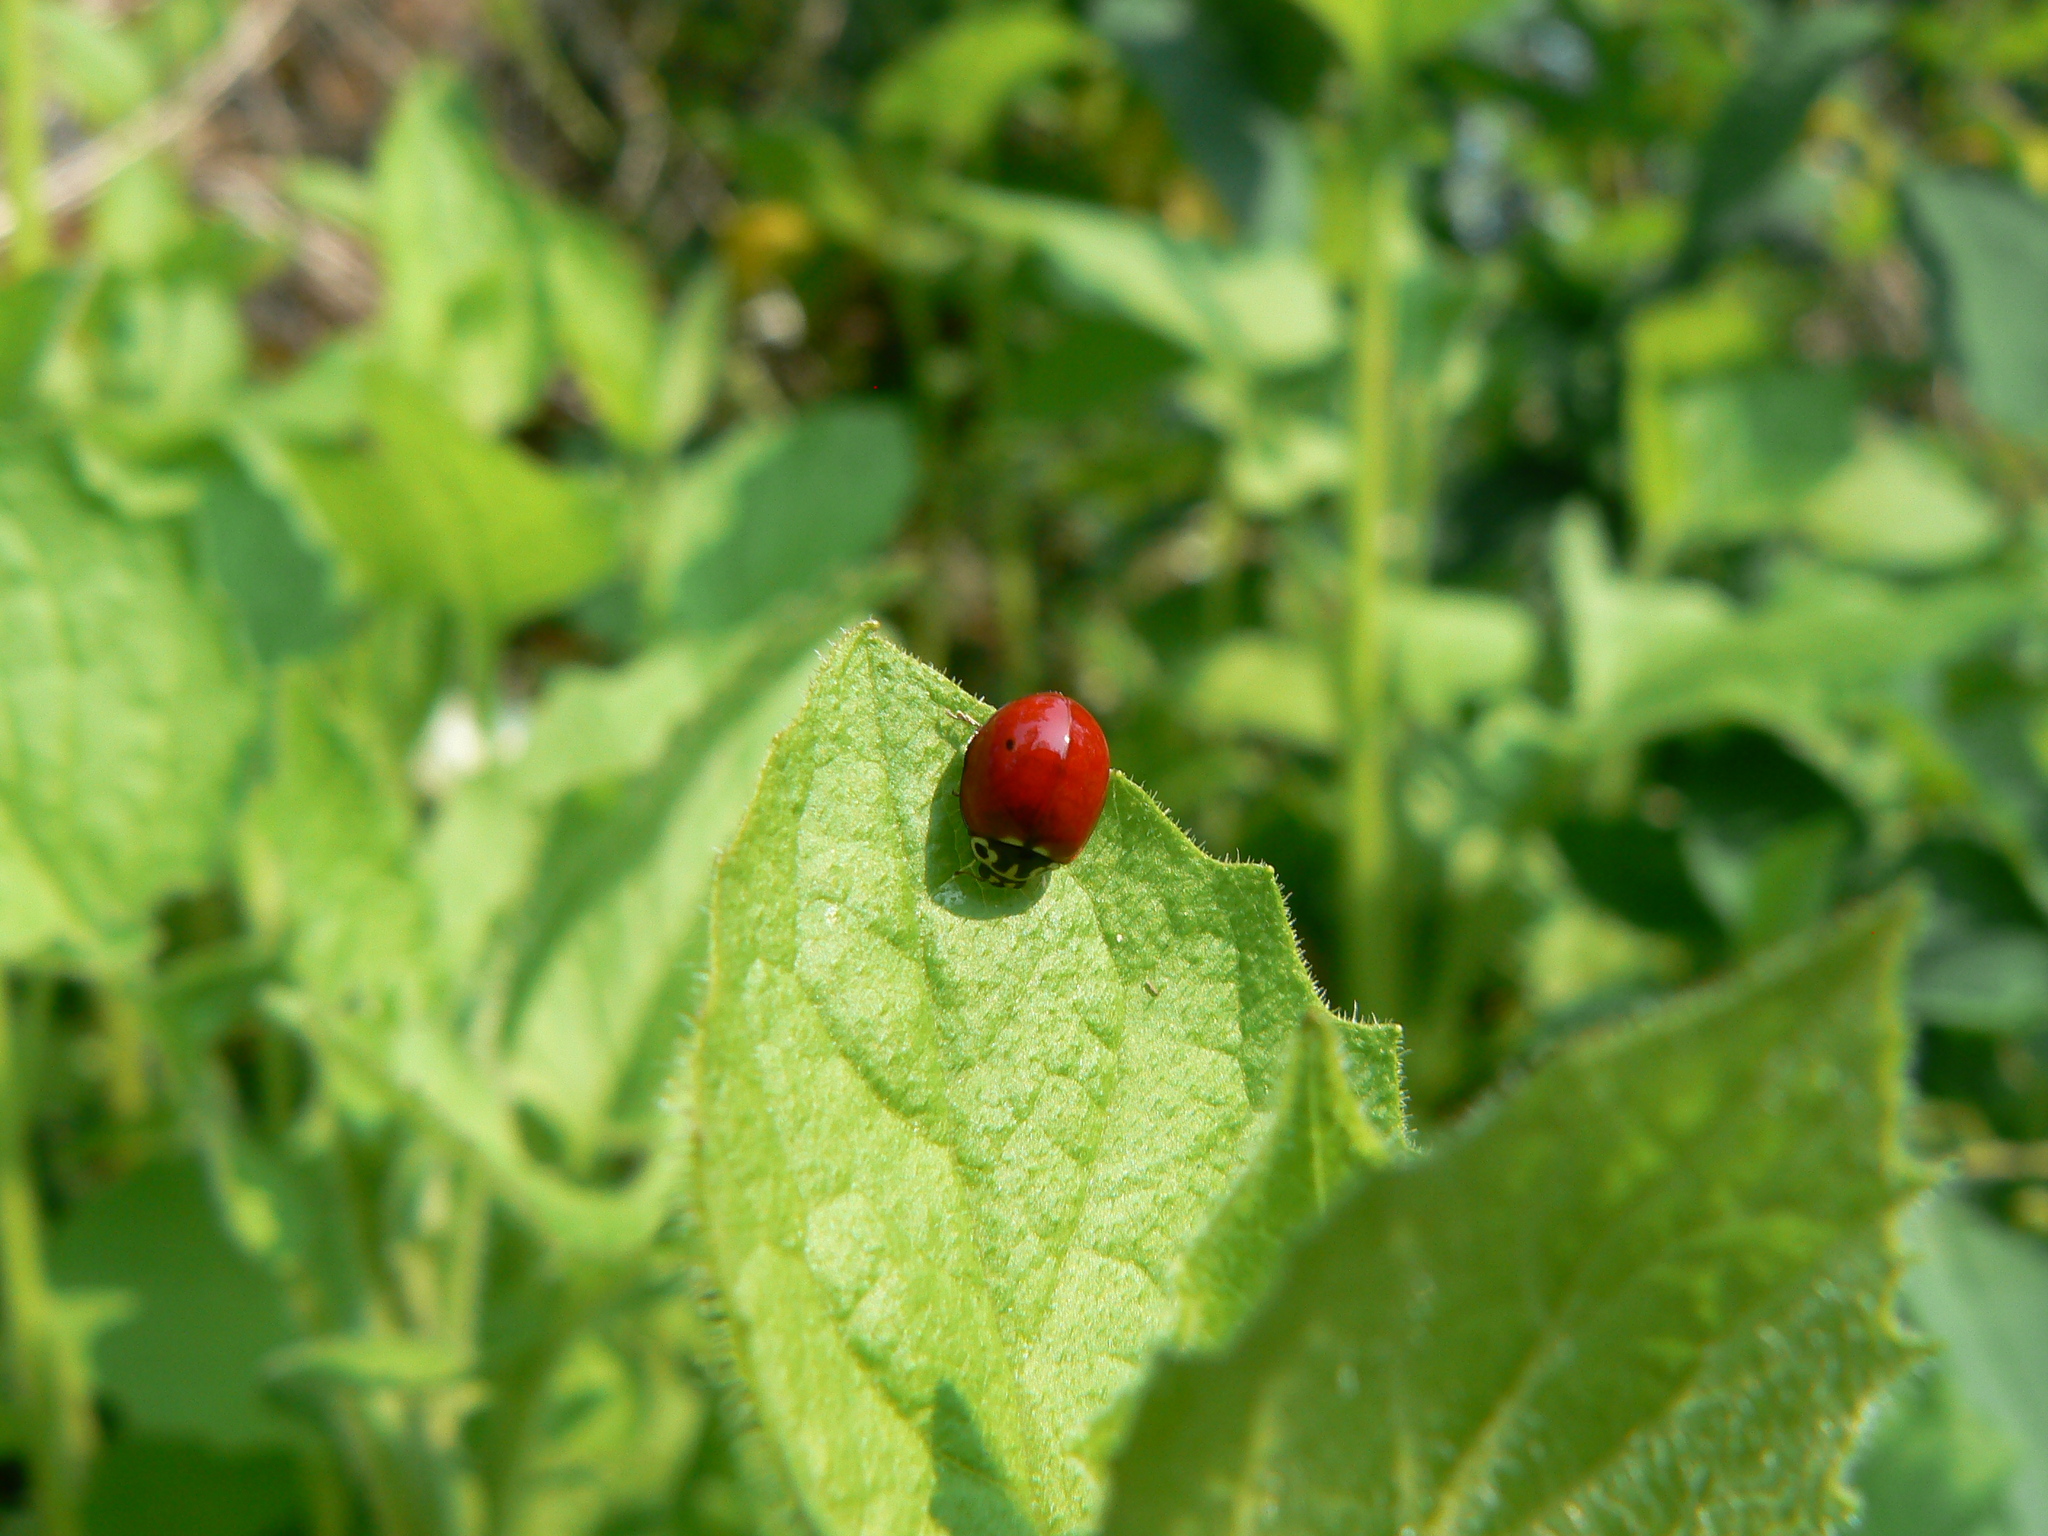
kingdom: Animalia
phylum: Arthropoda
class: Insecta
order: Coleoptera
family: Coccinellidae
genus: Cycloneda
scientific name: Cycloneda polita
